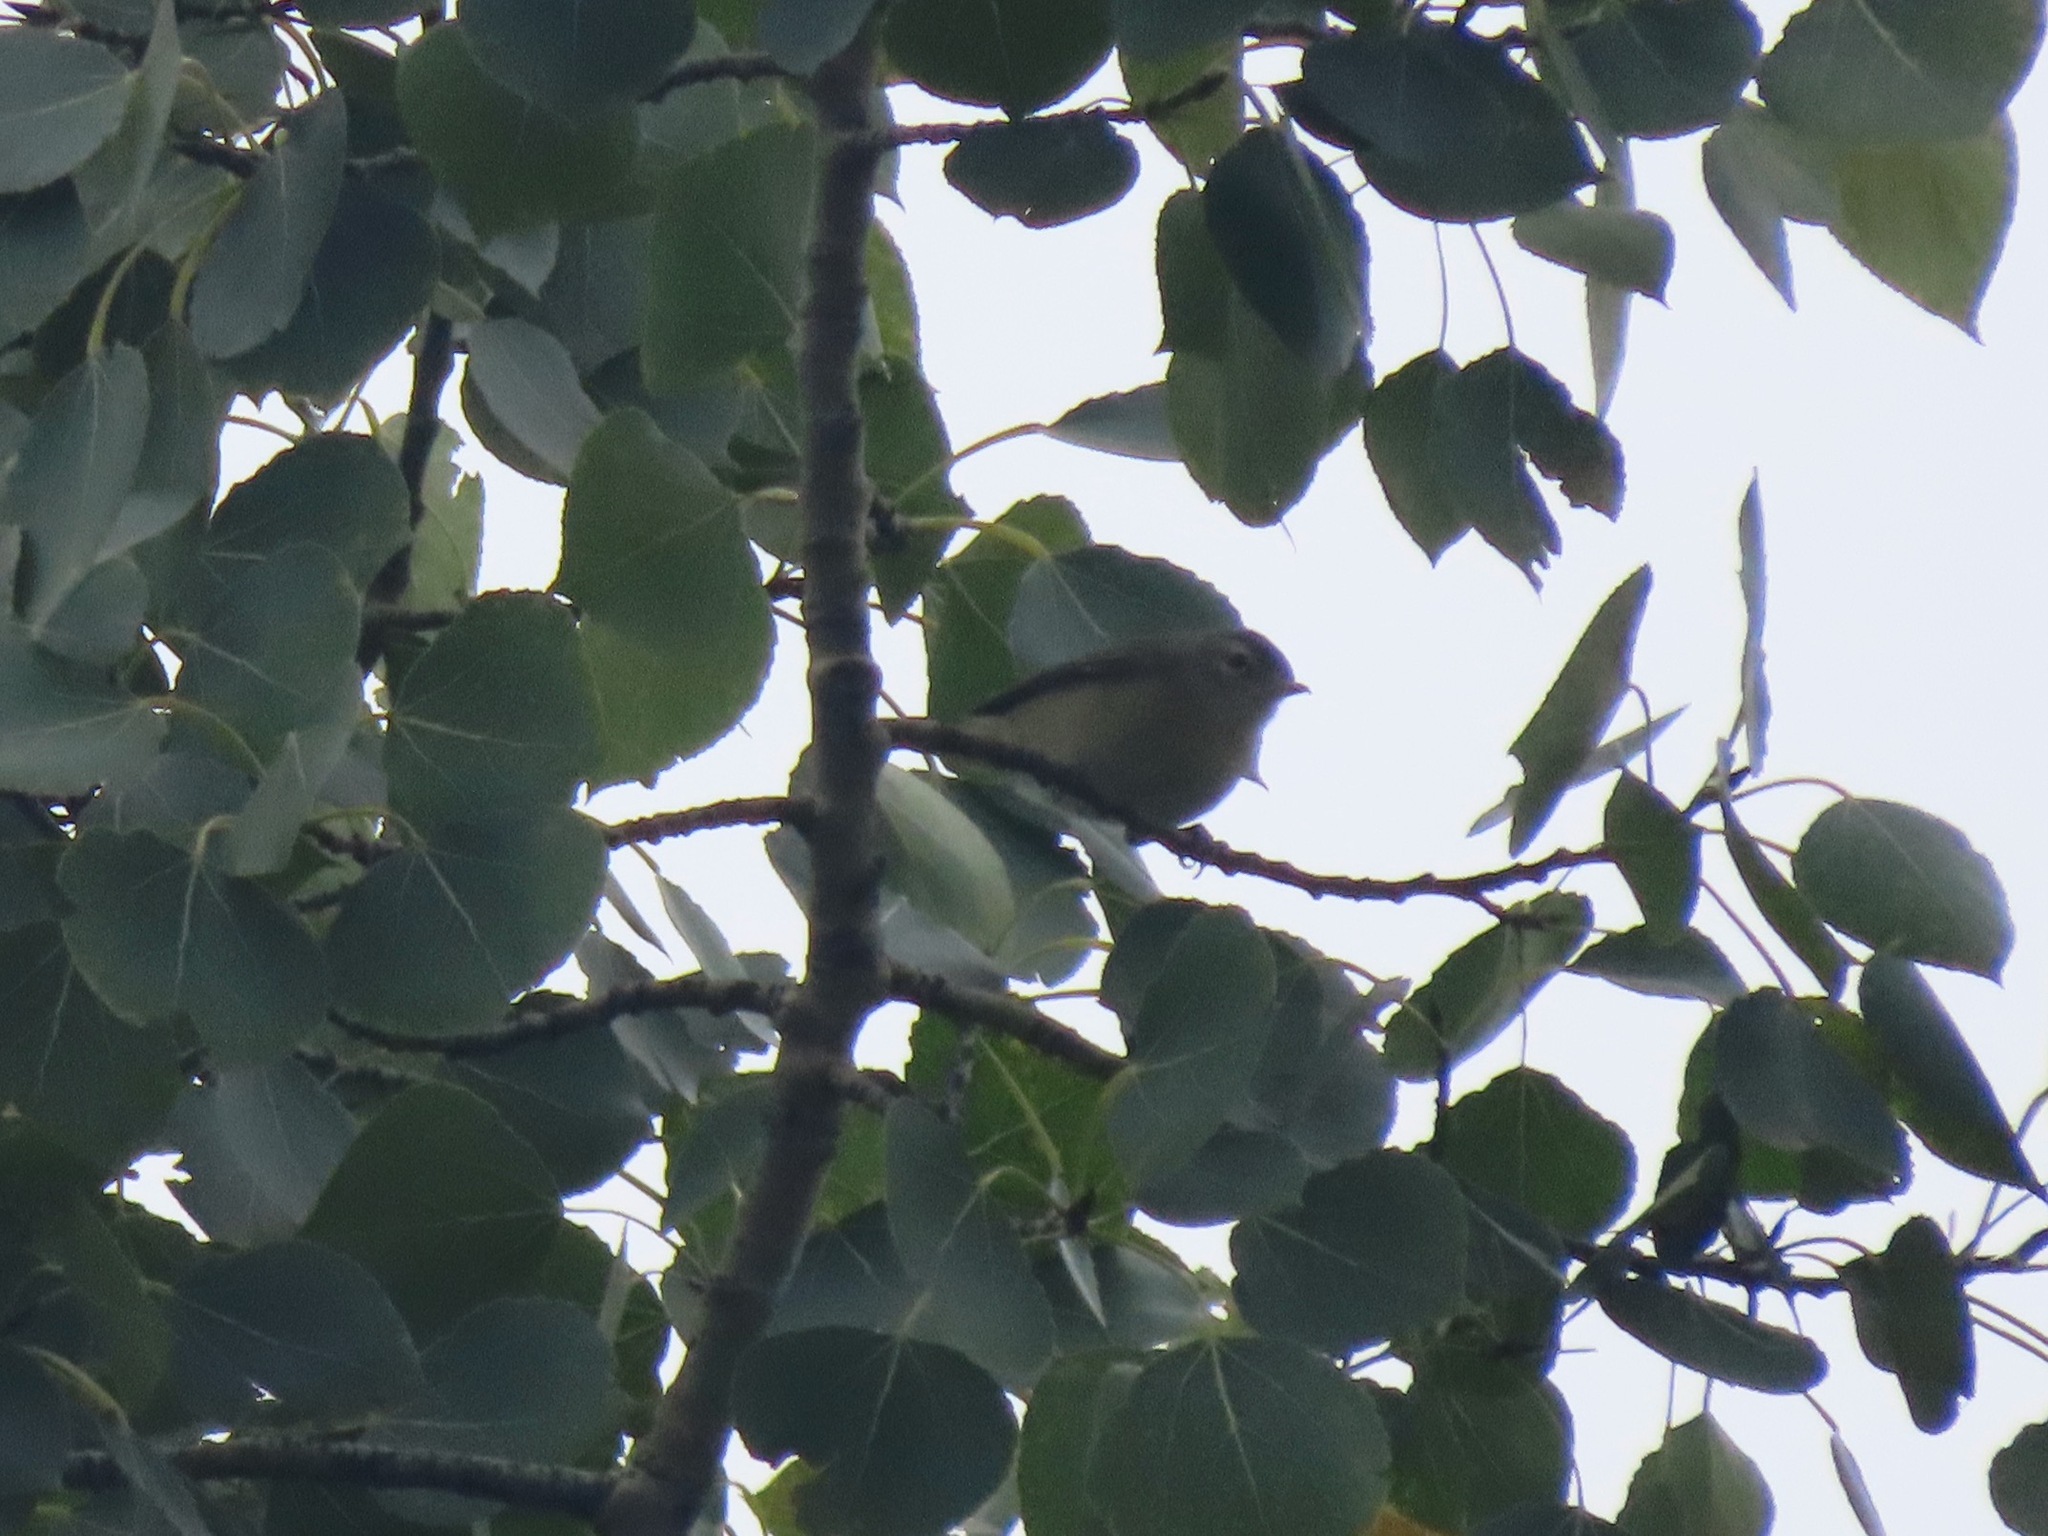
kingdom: Animalia
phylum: Chordata
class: Aves
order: Passeriformes
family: Vireonidae
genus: Vireo
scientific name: Vireo gilvus
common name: Warbling vireo
